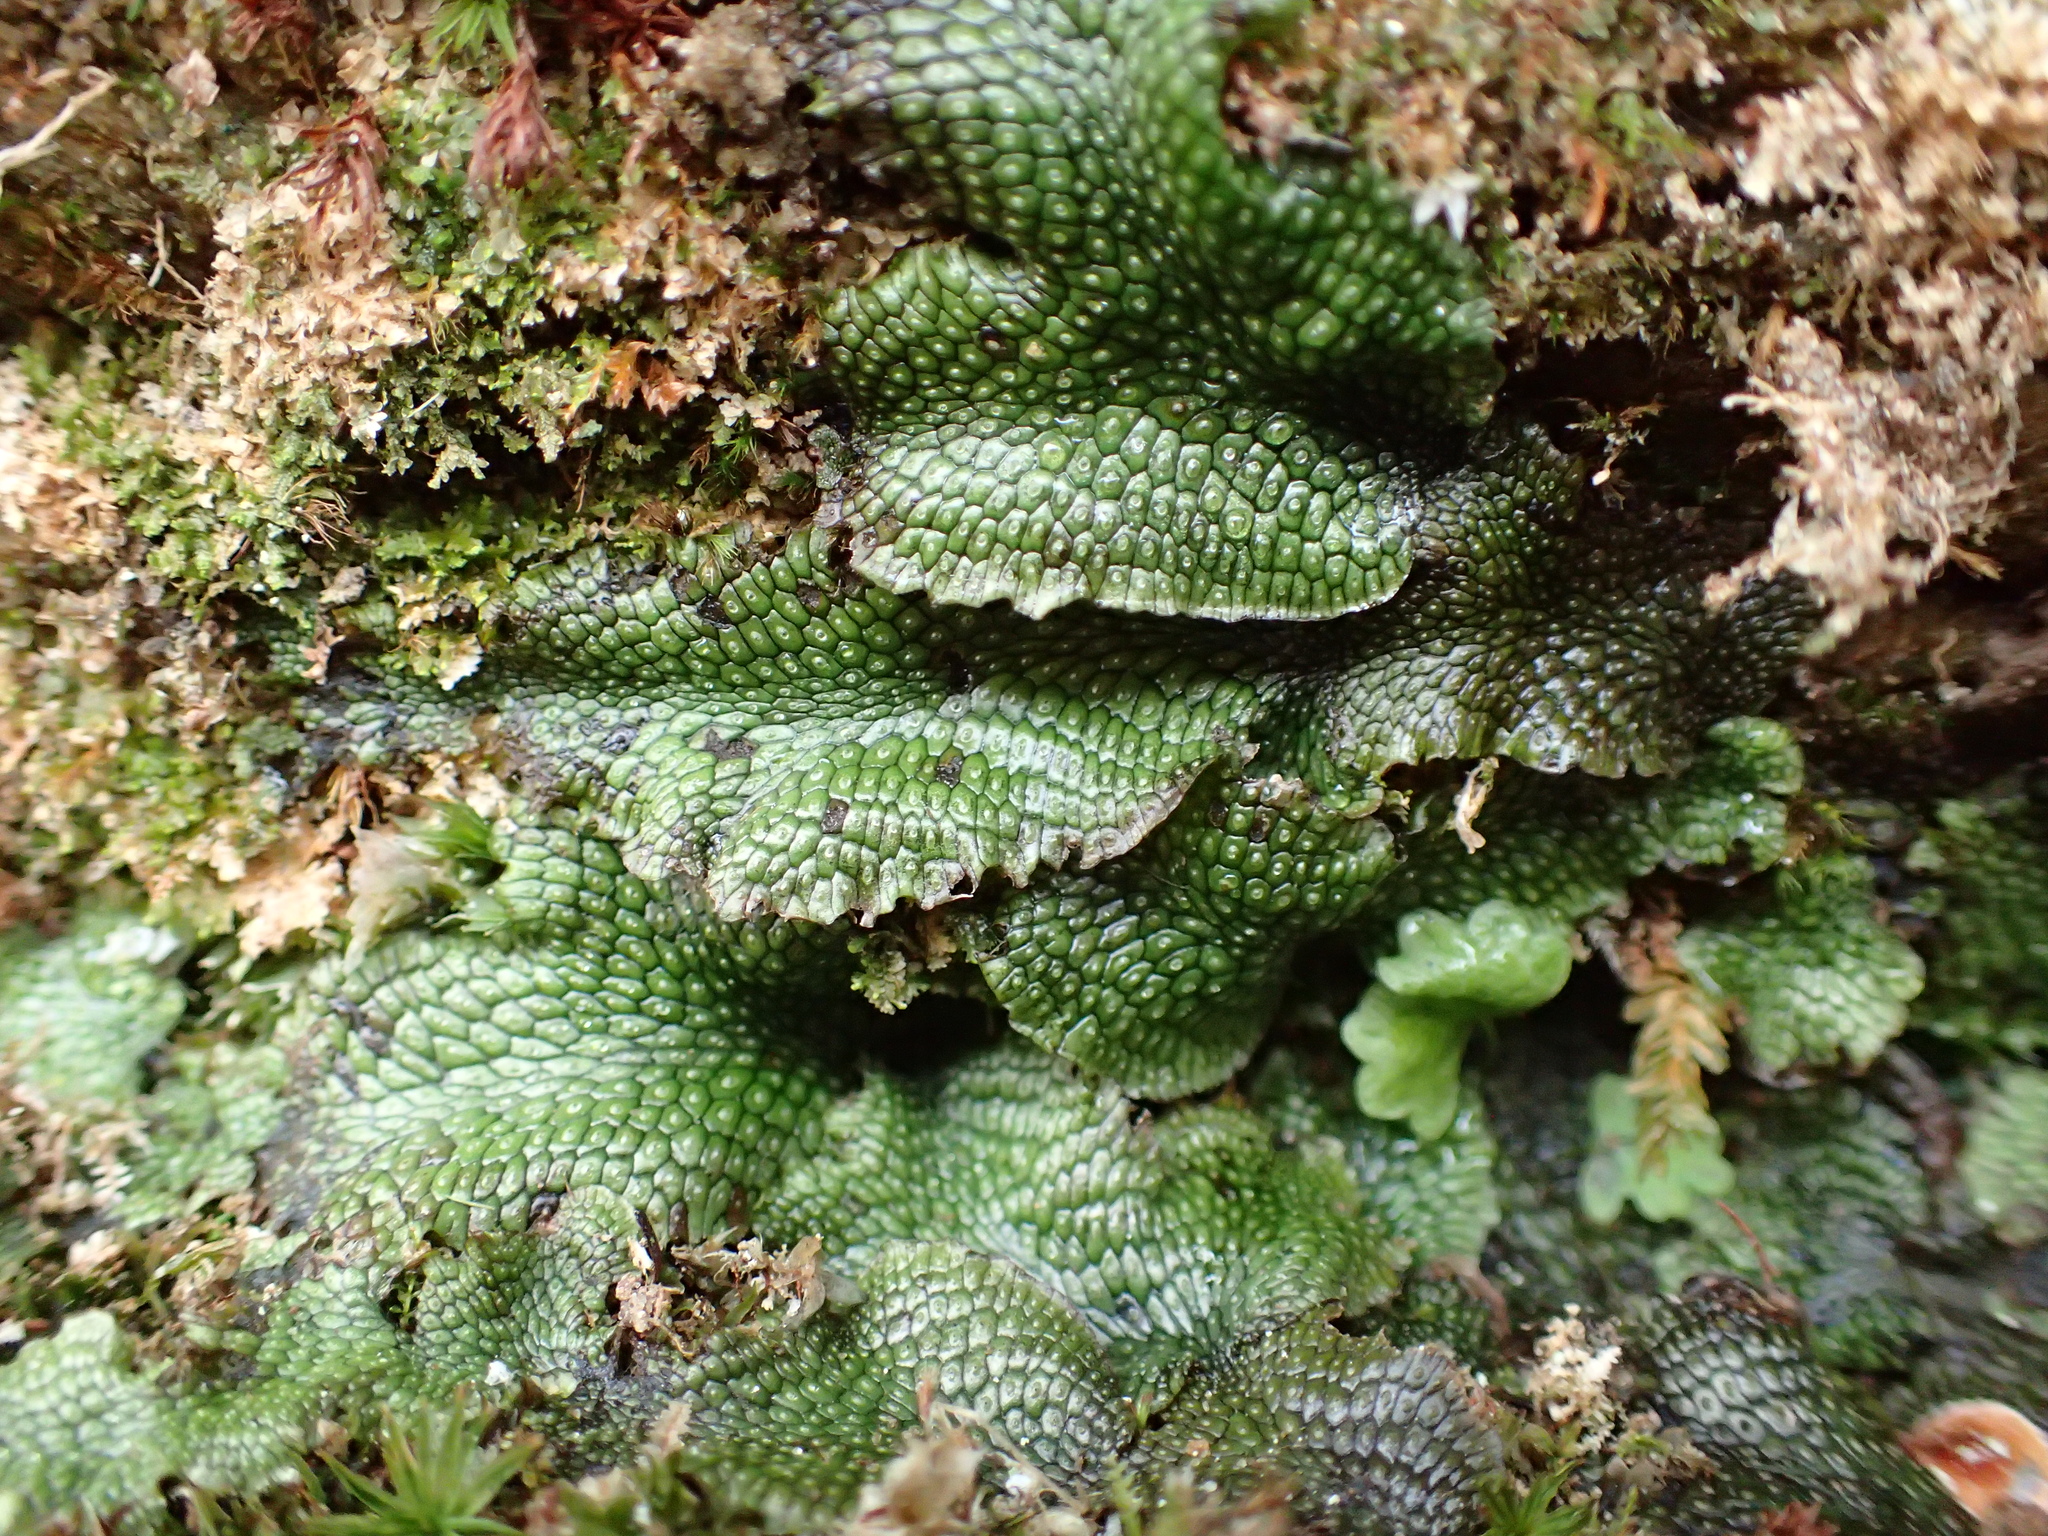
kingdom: Plantae
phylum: Marchantiophyta
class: Marchantiopsida
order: Marchantiales
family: Conocephalaceae
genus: Conocephalum
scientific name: Conocephalum salebrosum
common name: Cat-tongue liverwort
